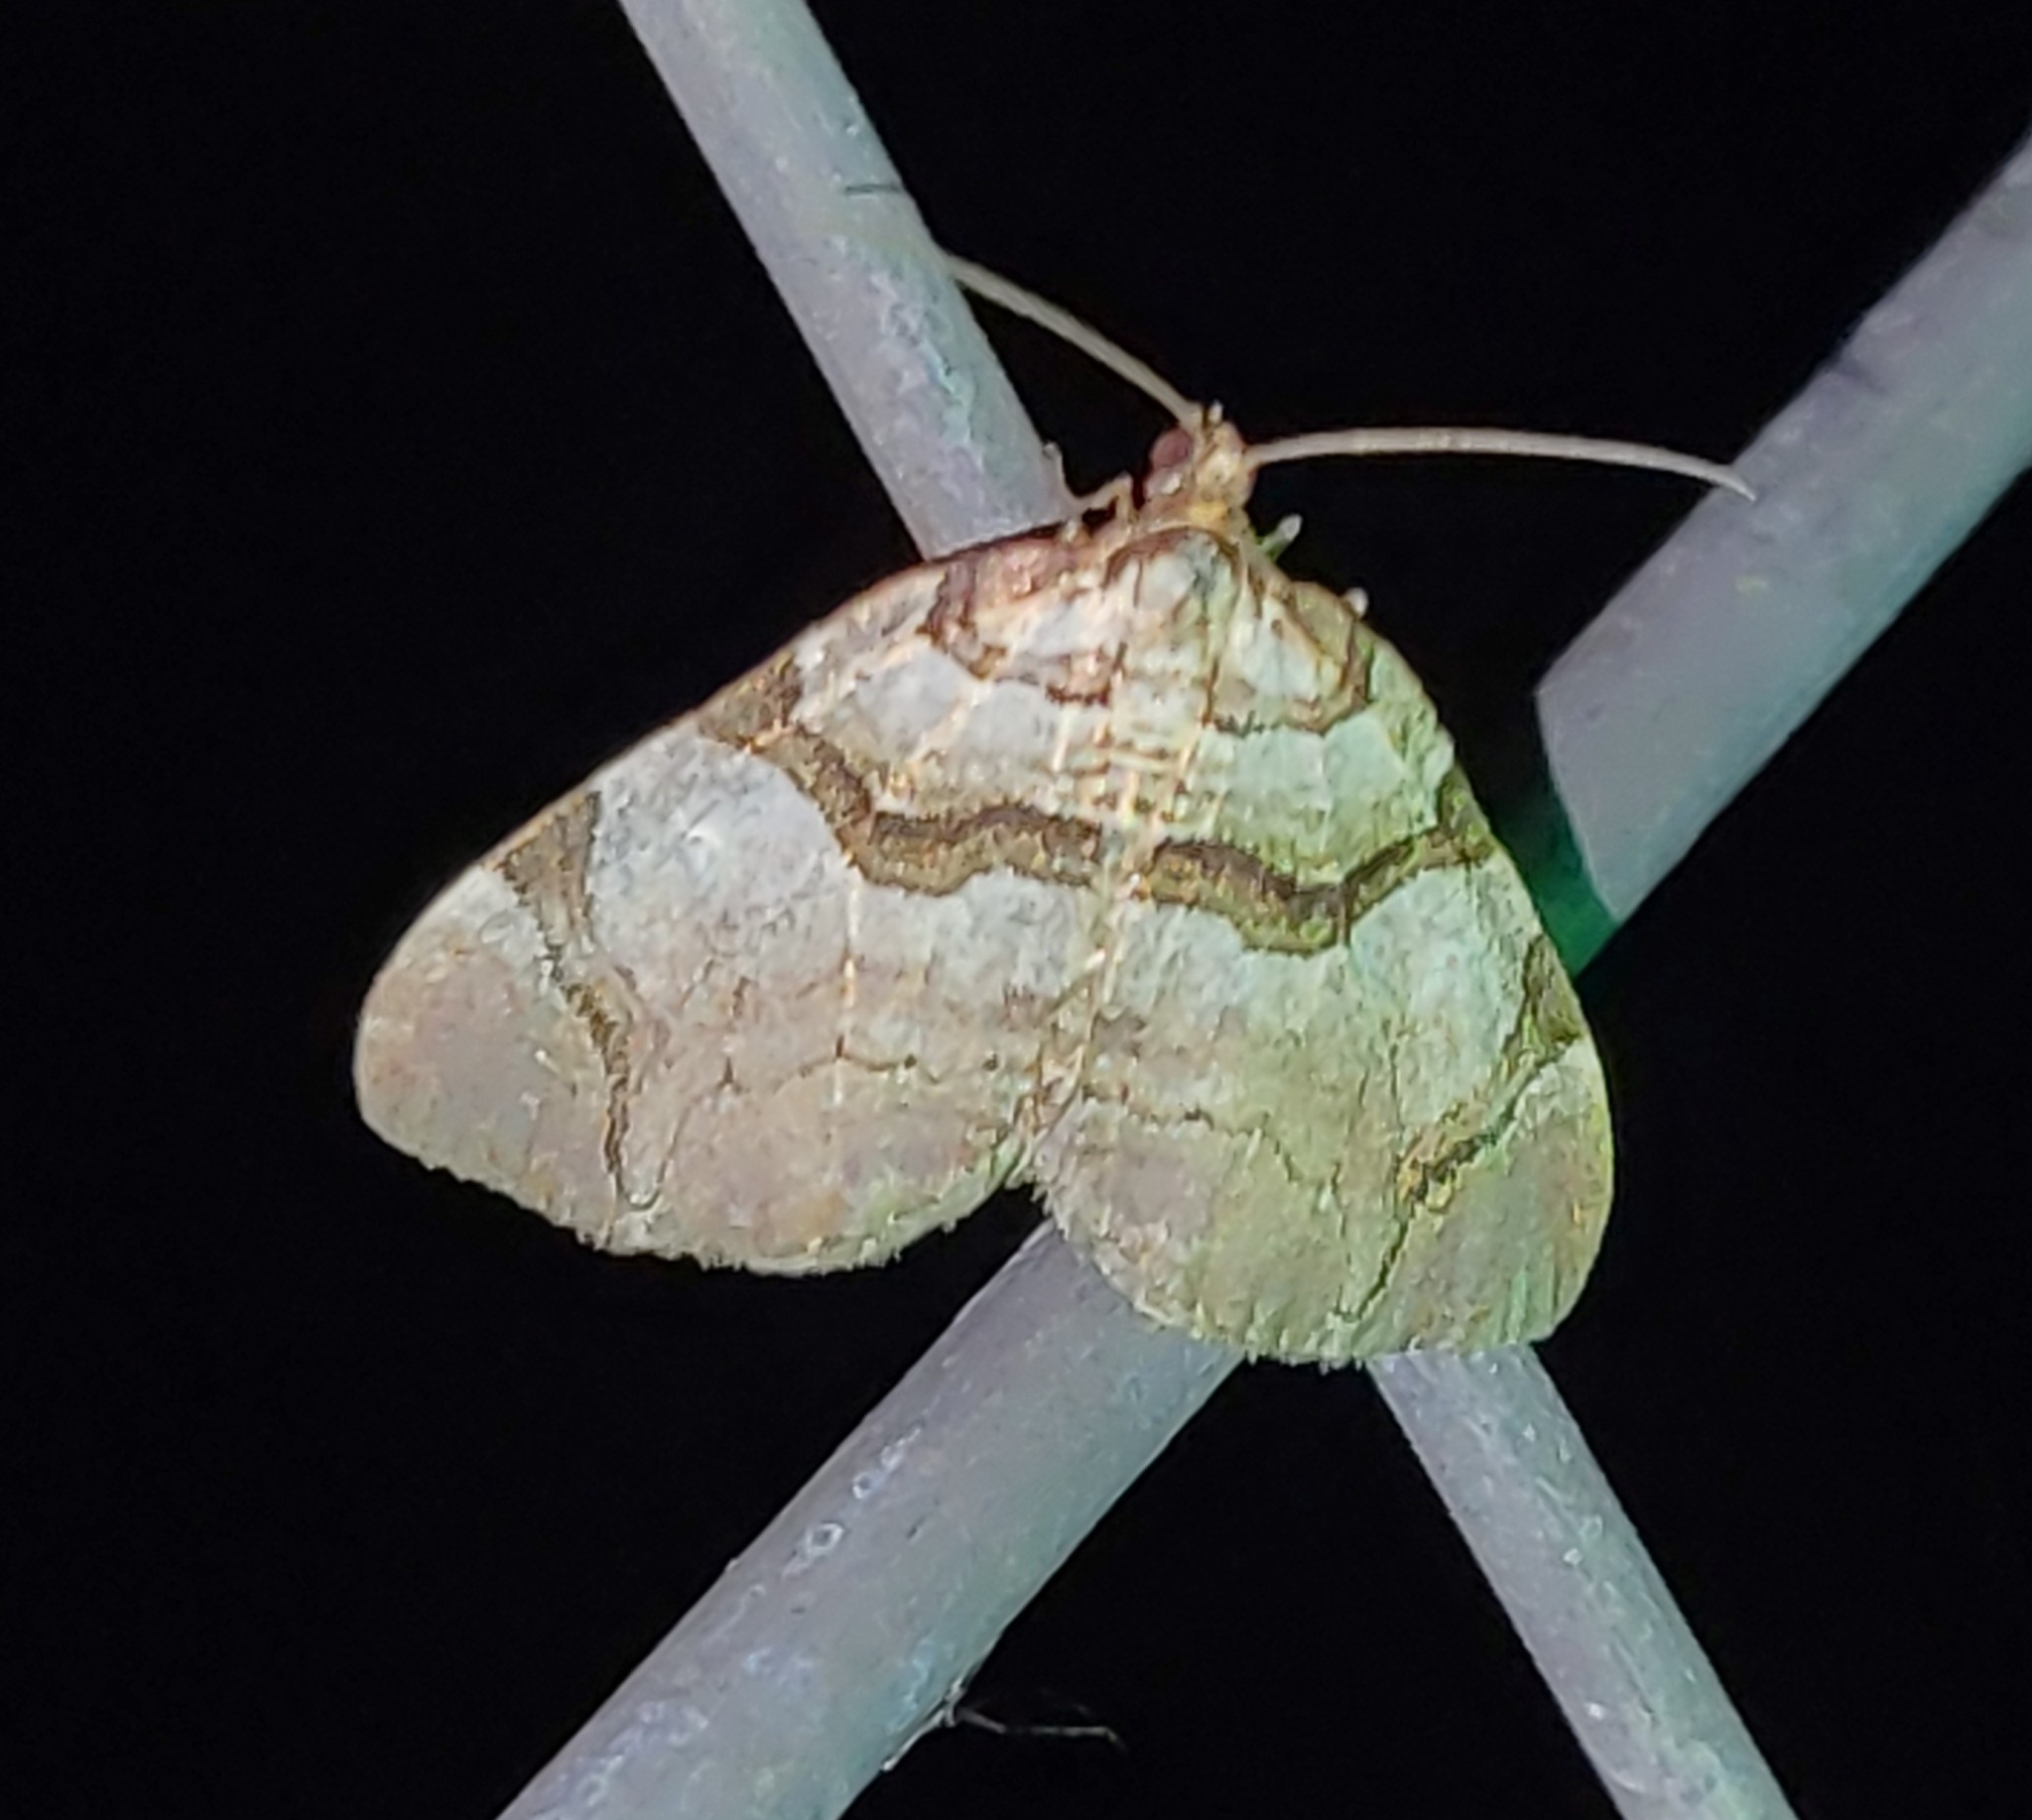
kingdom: Animalia
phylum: Arthropoda
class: Insecta
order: Lepidoptera
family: Geometridae
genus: Anticlea
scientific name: Anticlea derivata
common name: Streamer
